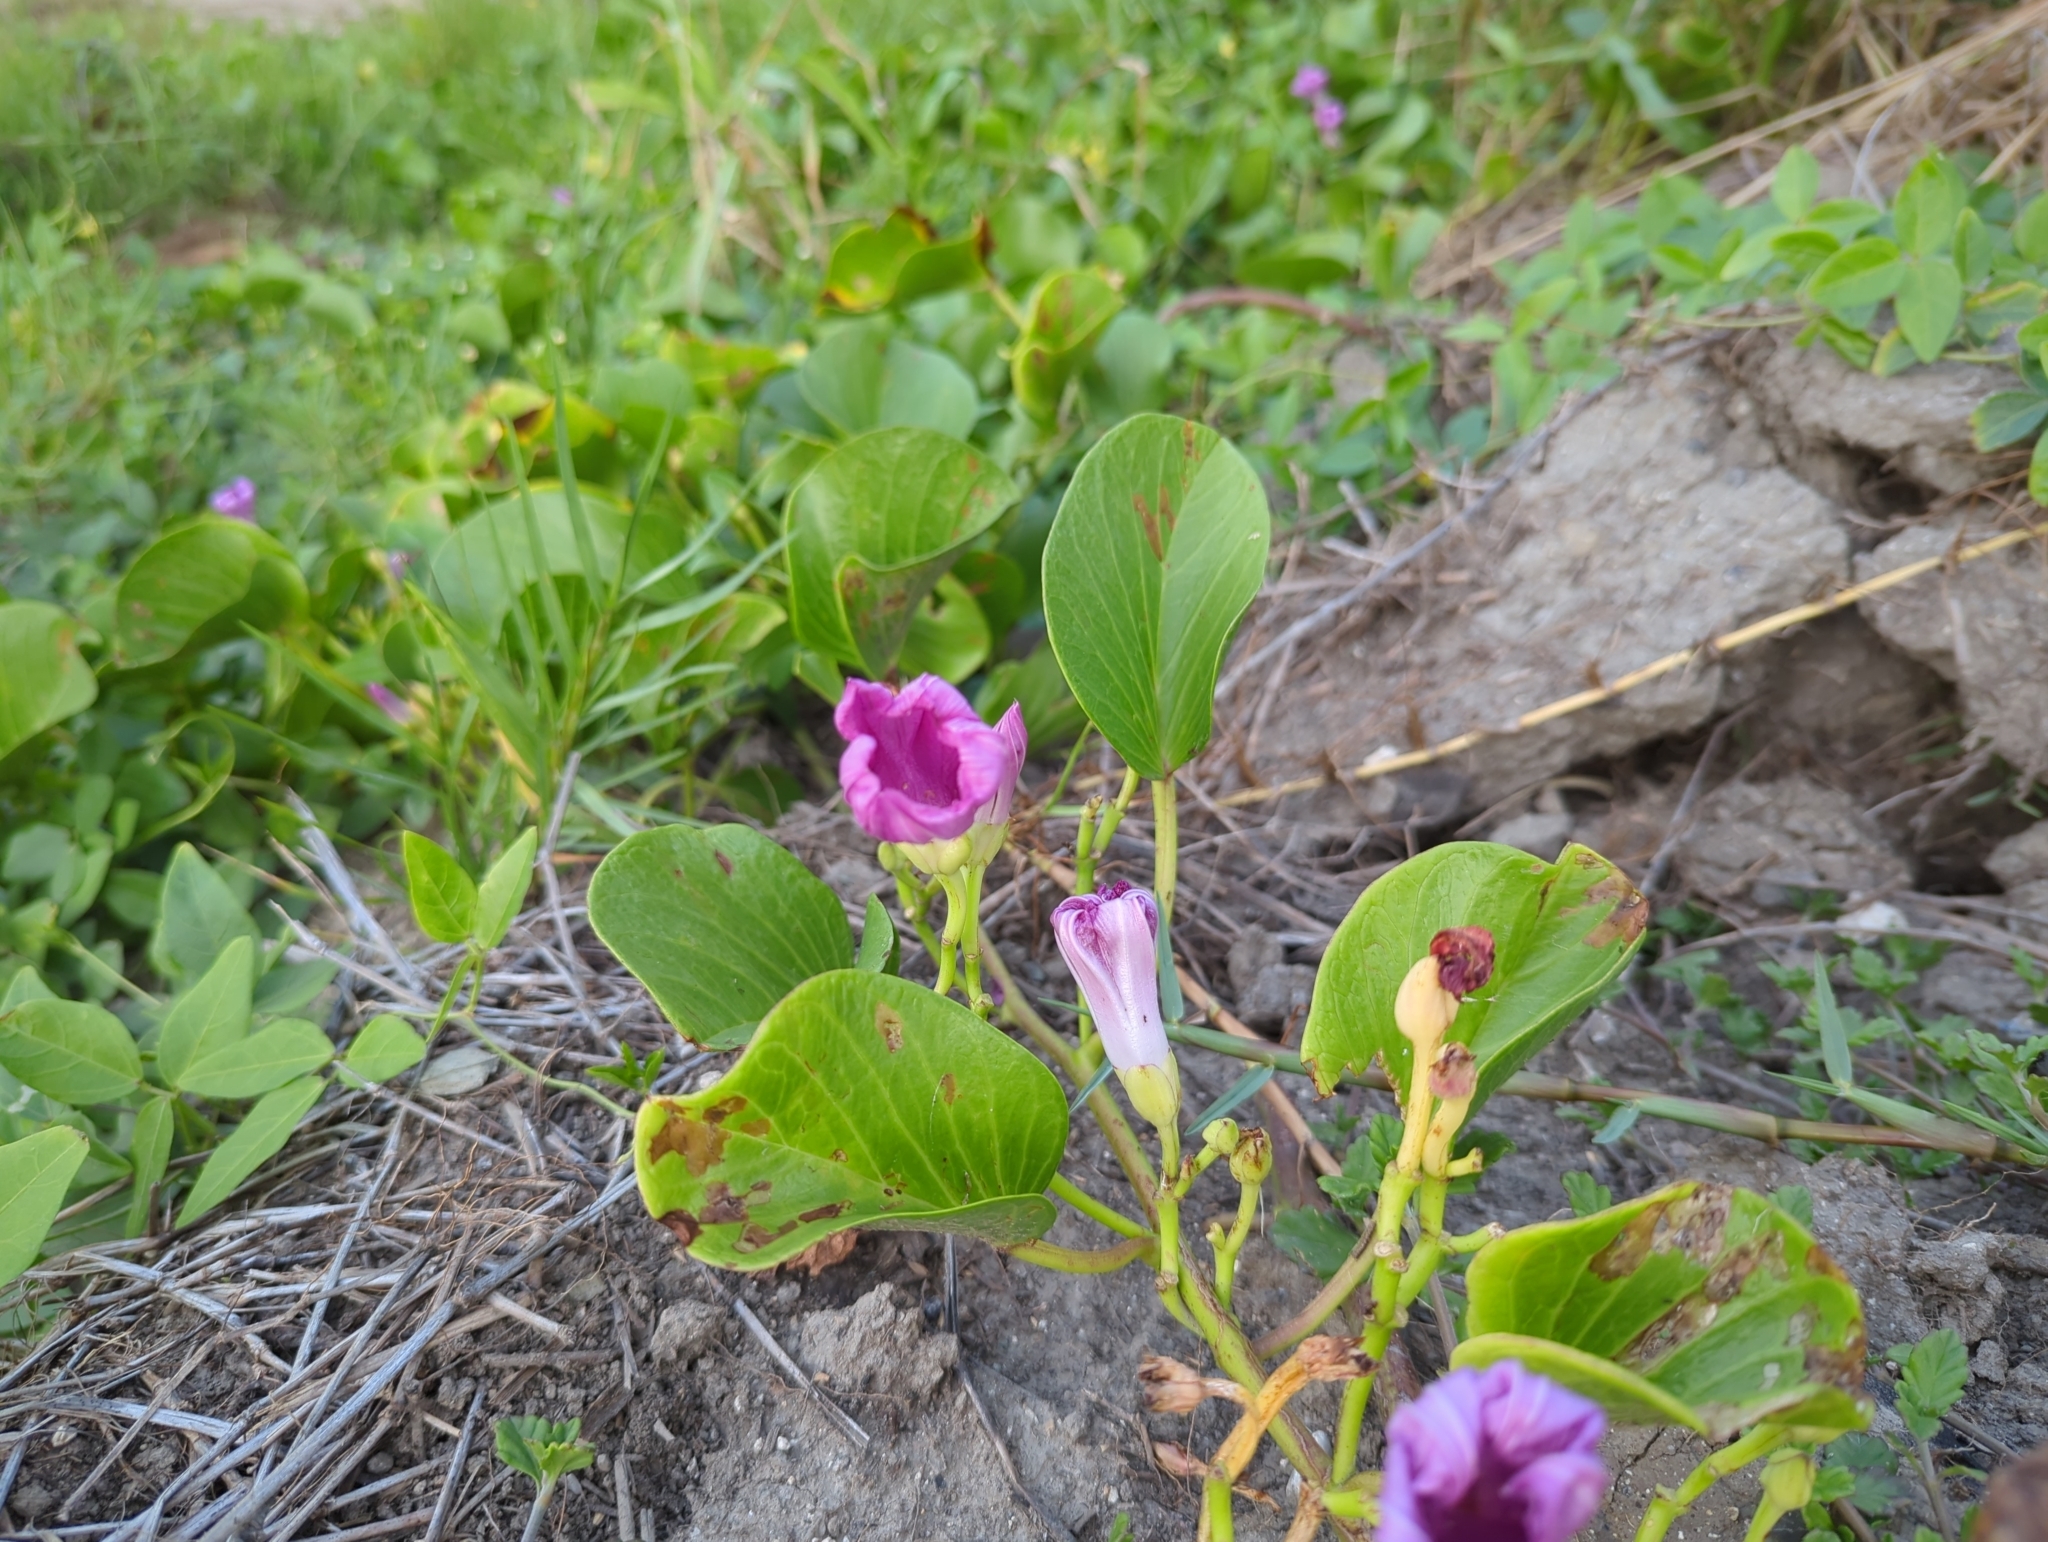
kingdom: Plantae
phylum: Tracheophyta
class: Magnoliopsida
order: Solanales
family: Convolvulaceae
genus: Ipomoea
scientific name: Ipomoea pes-caprae
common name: Beach morning glory
